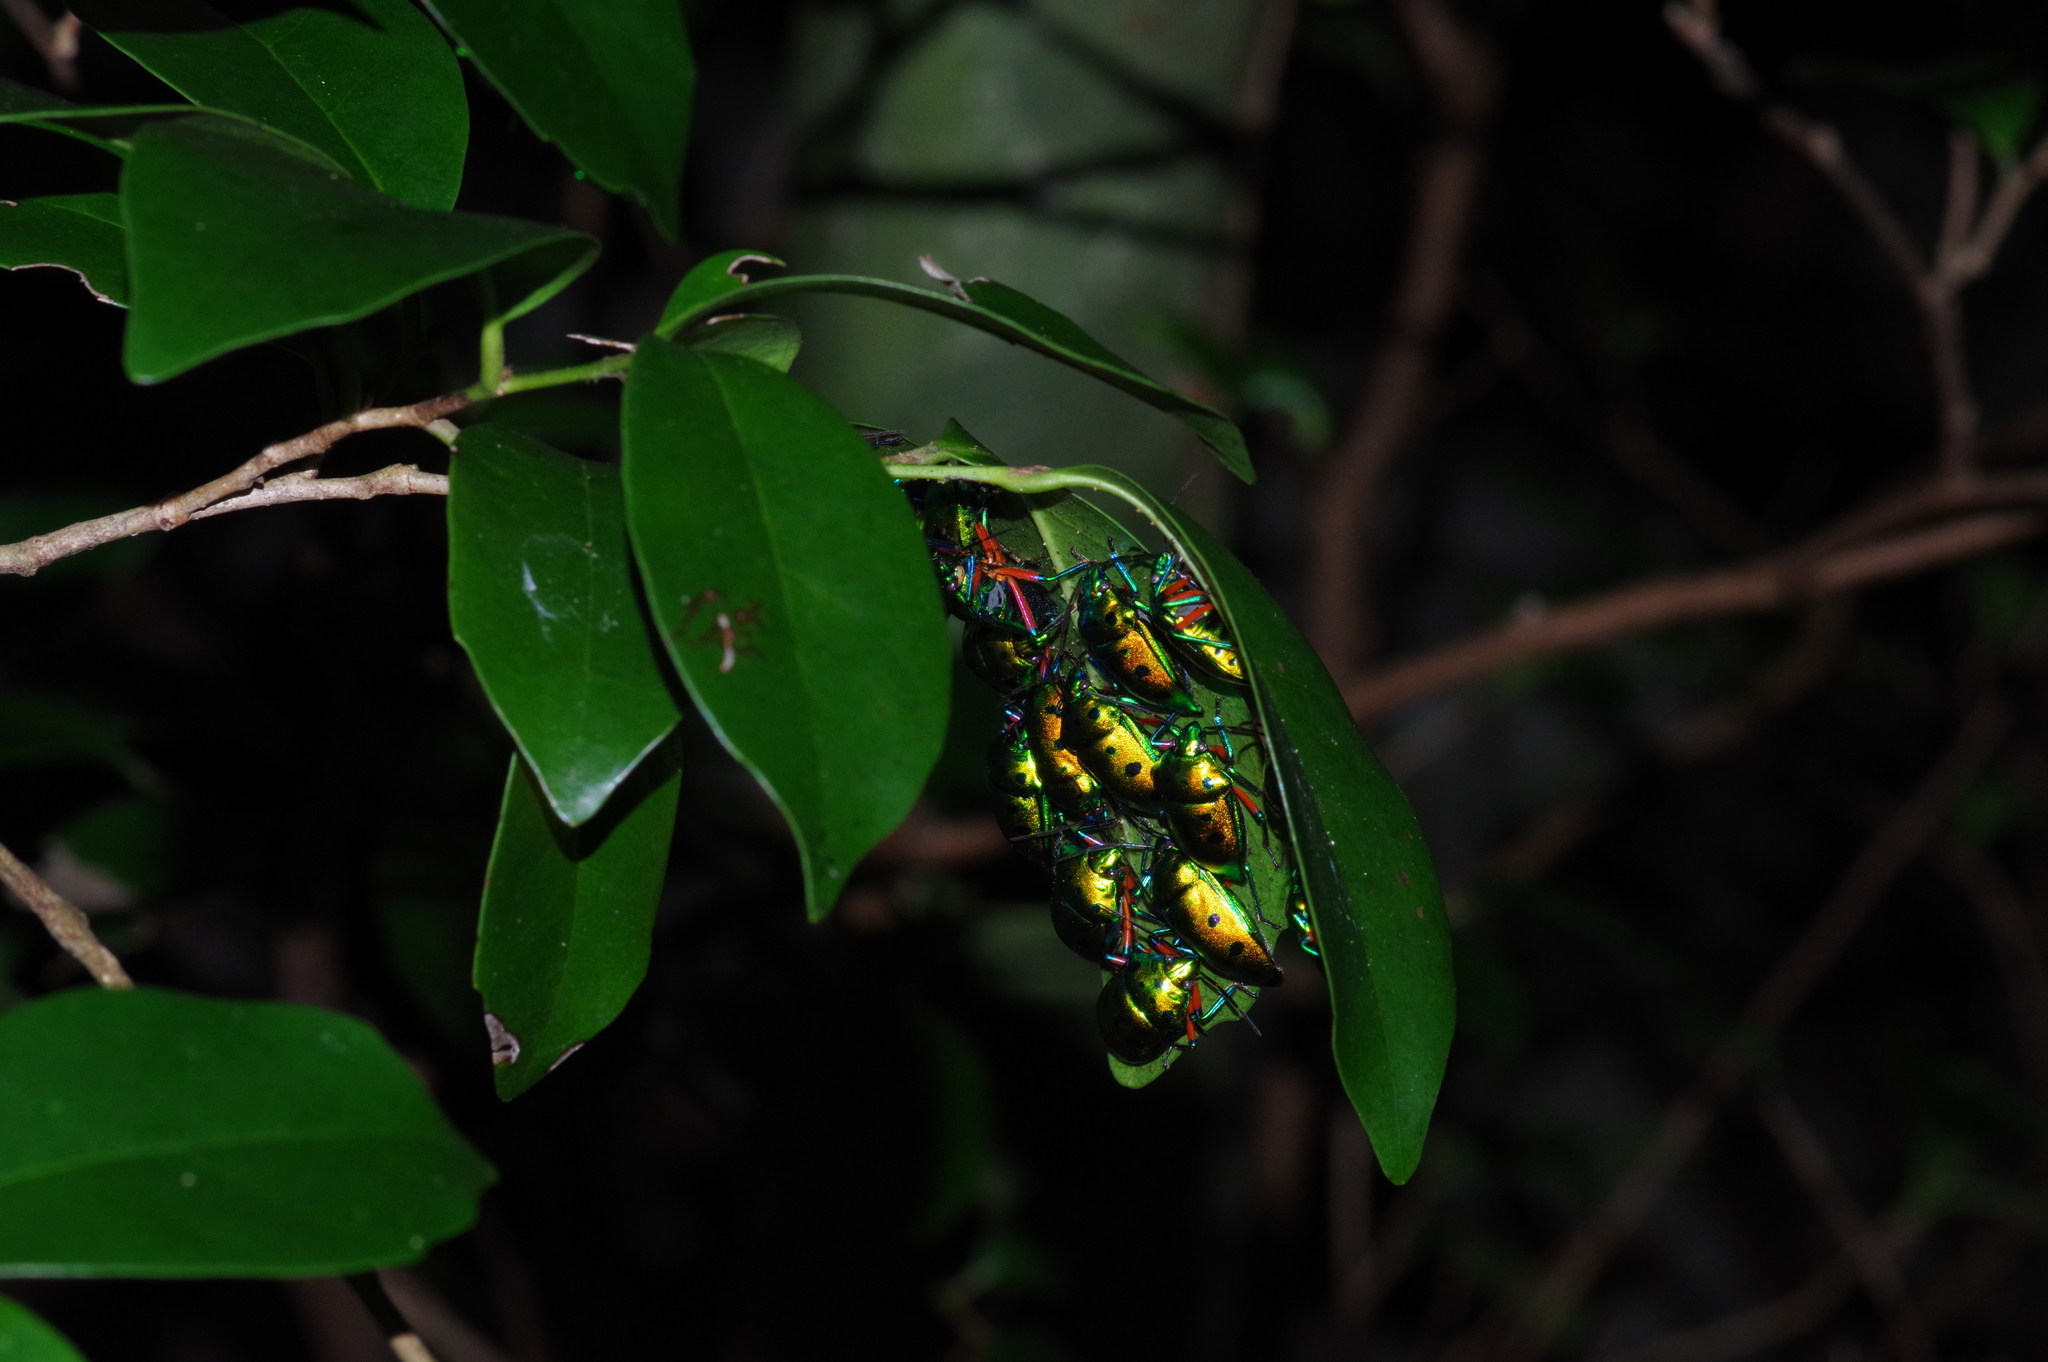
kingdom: Animalia
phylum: Arthropoda
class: Insecta
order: Hemiptera
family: Scutelleridae
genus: Calliphara
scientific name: Calliphara excellens
